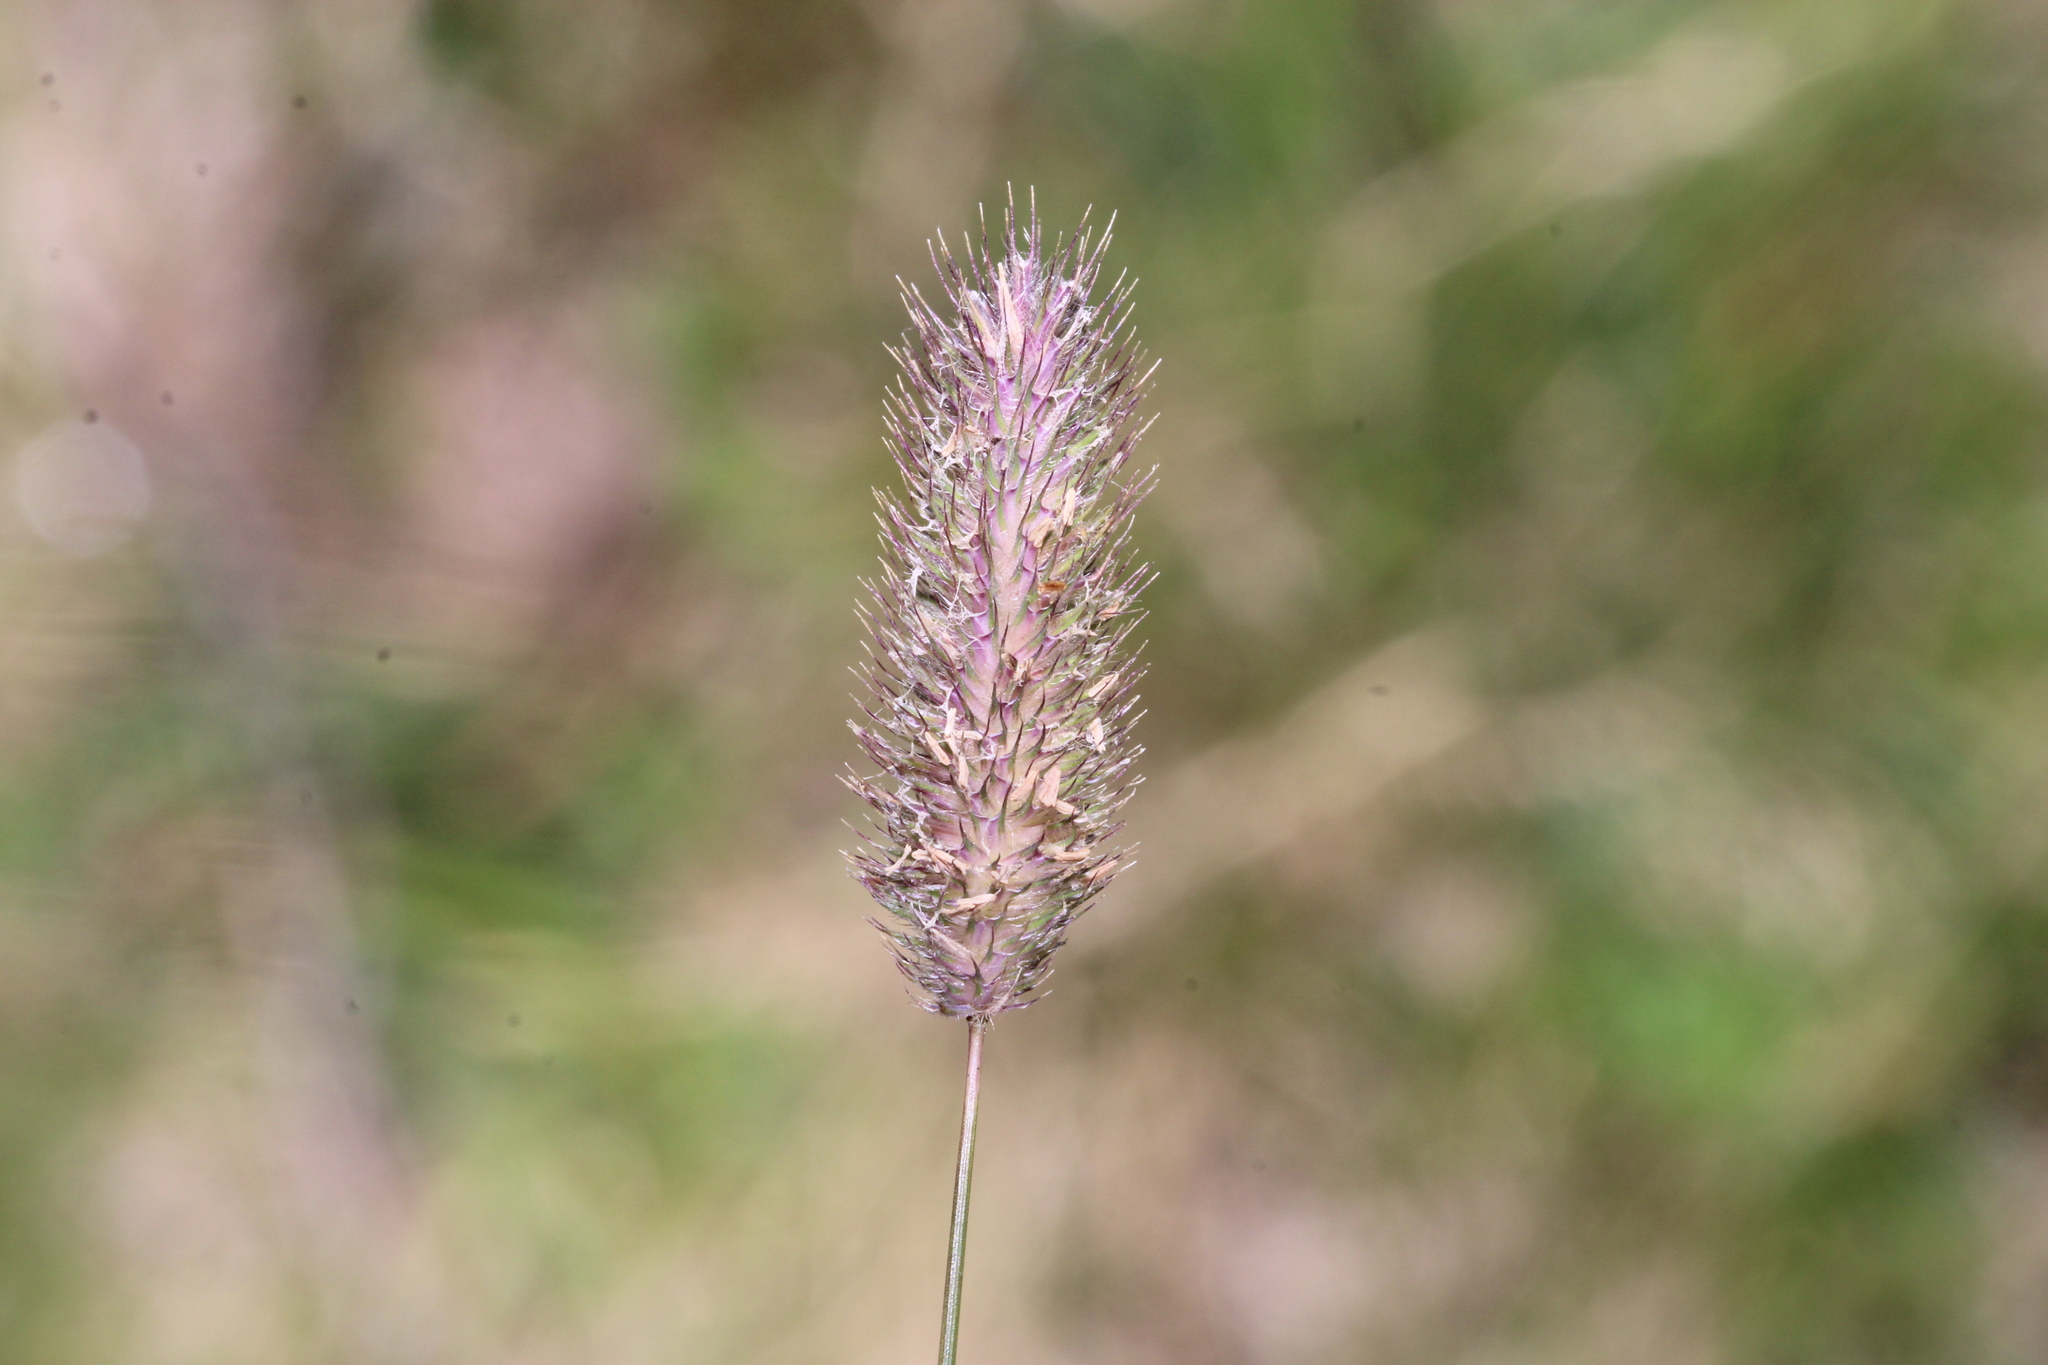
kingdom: Plantae
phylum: Tracheophyta
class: Liliopsida
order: Poales
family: Poaceae
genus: Phleum
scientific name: Phleum alpinum
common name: Alpine cat's-tail
